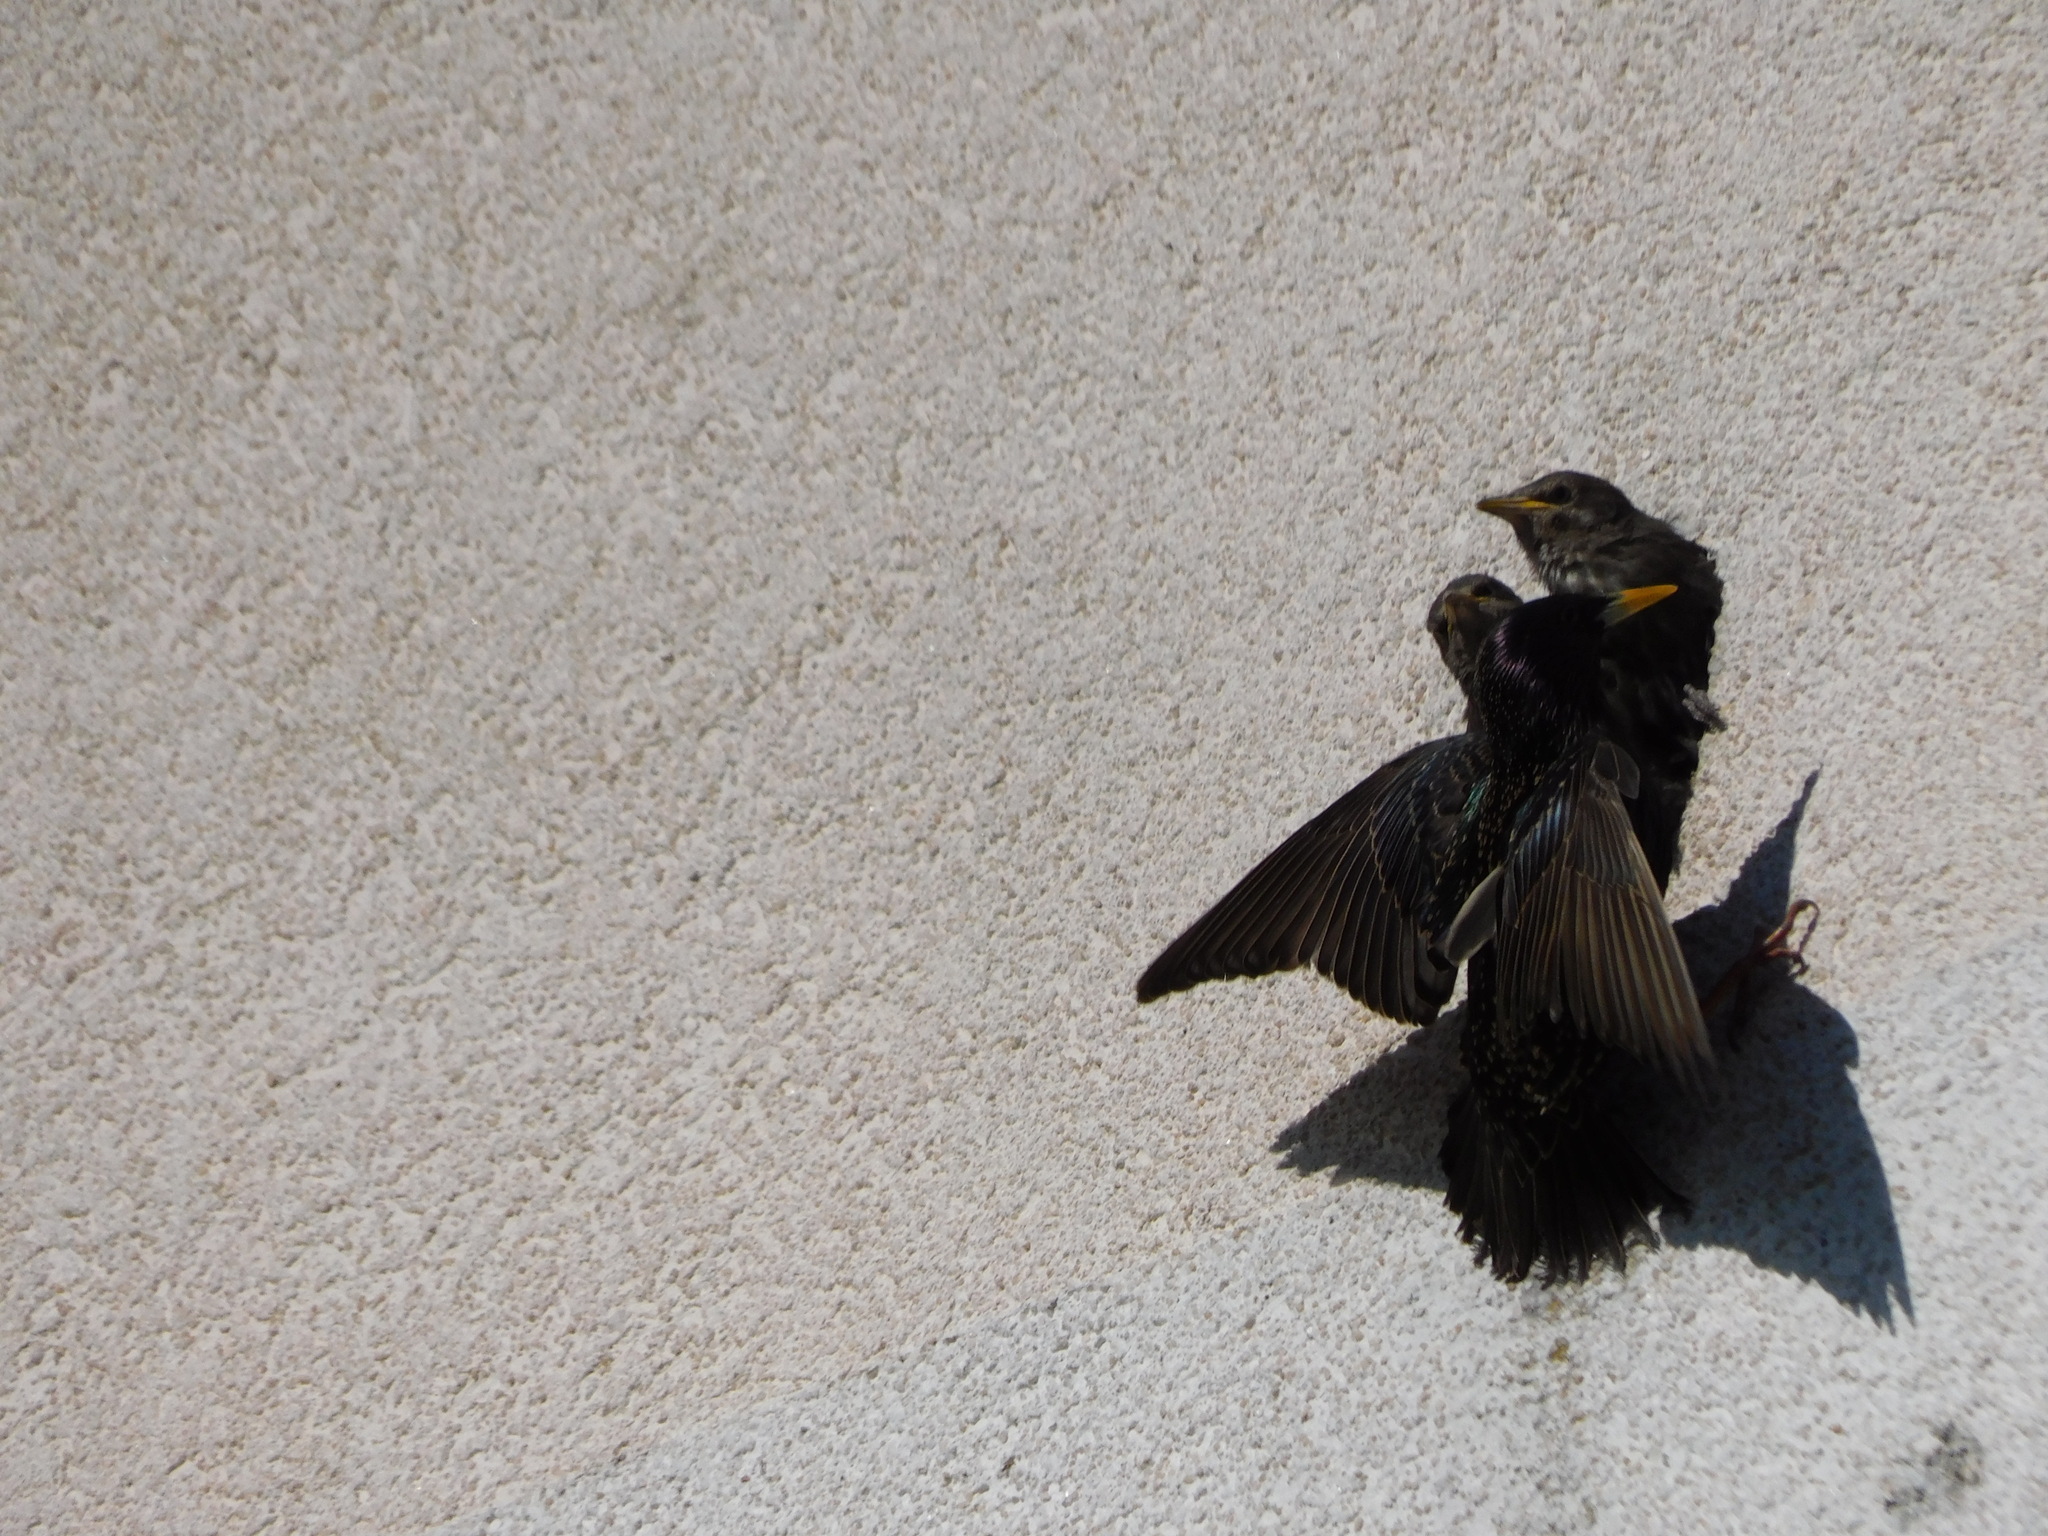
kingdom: Animalia
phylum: Chordata
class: Aves
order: Passeriformes
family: Sturnidae
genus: Sturnus
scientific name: Sturnus vulgaris
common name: Common starling
